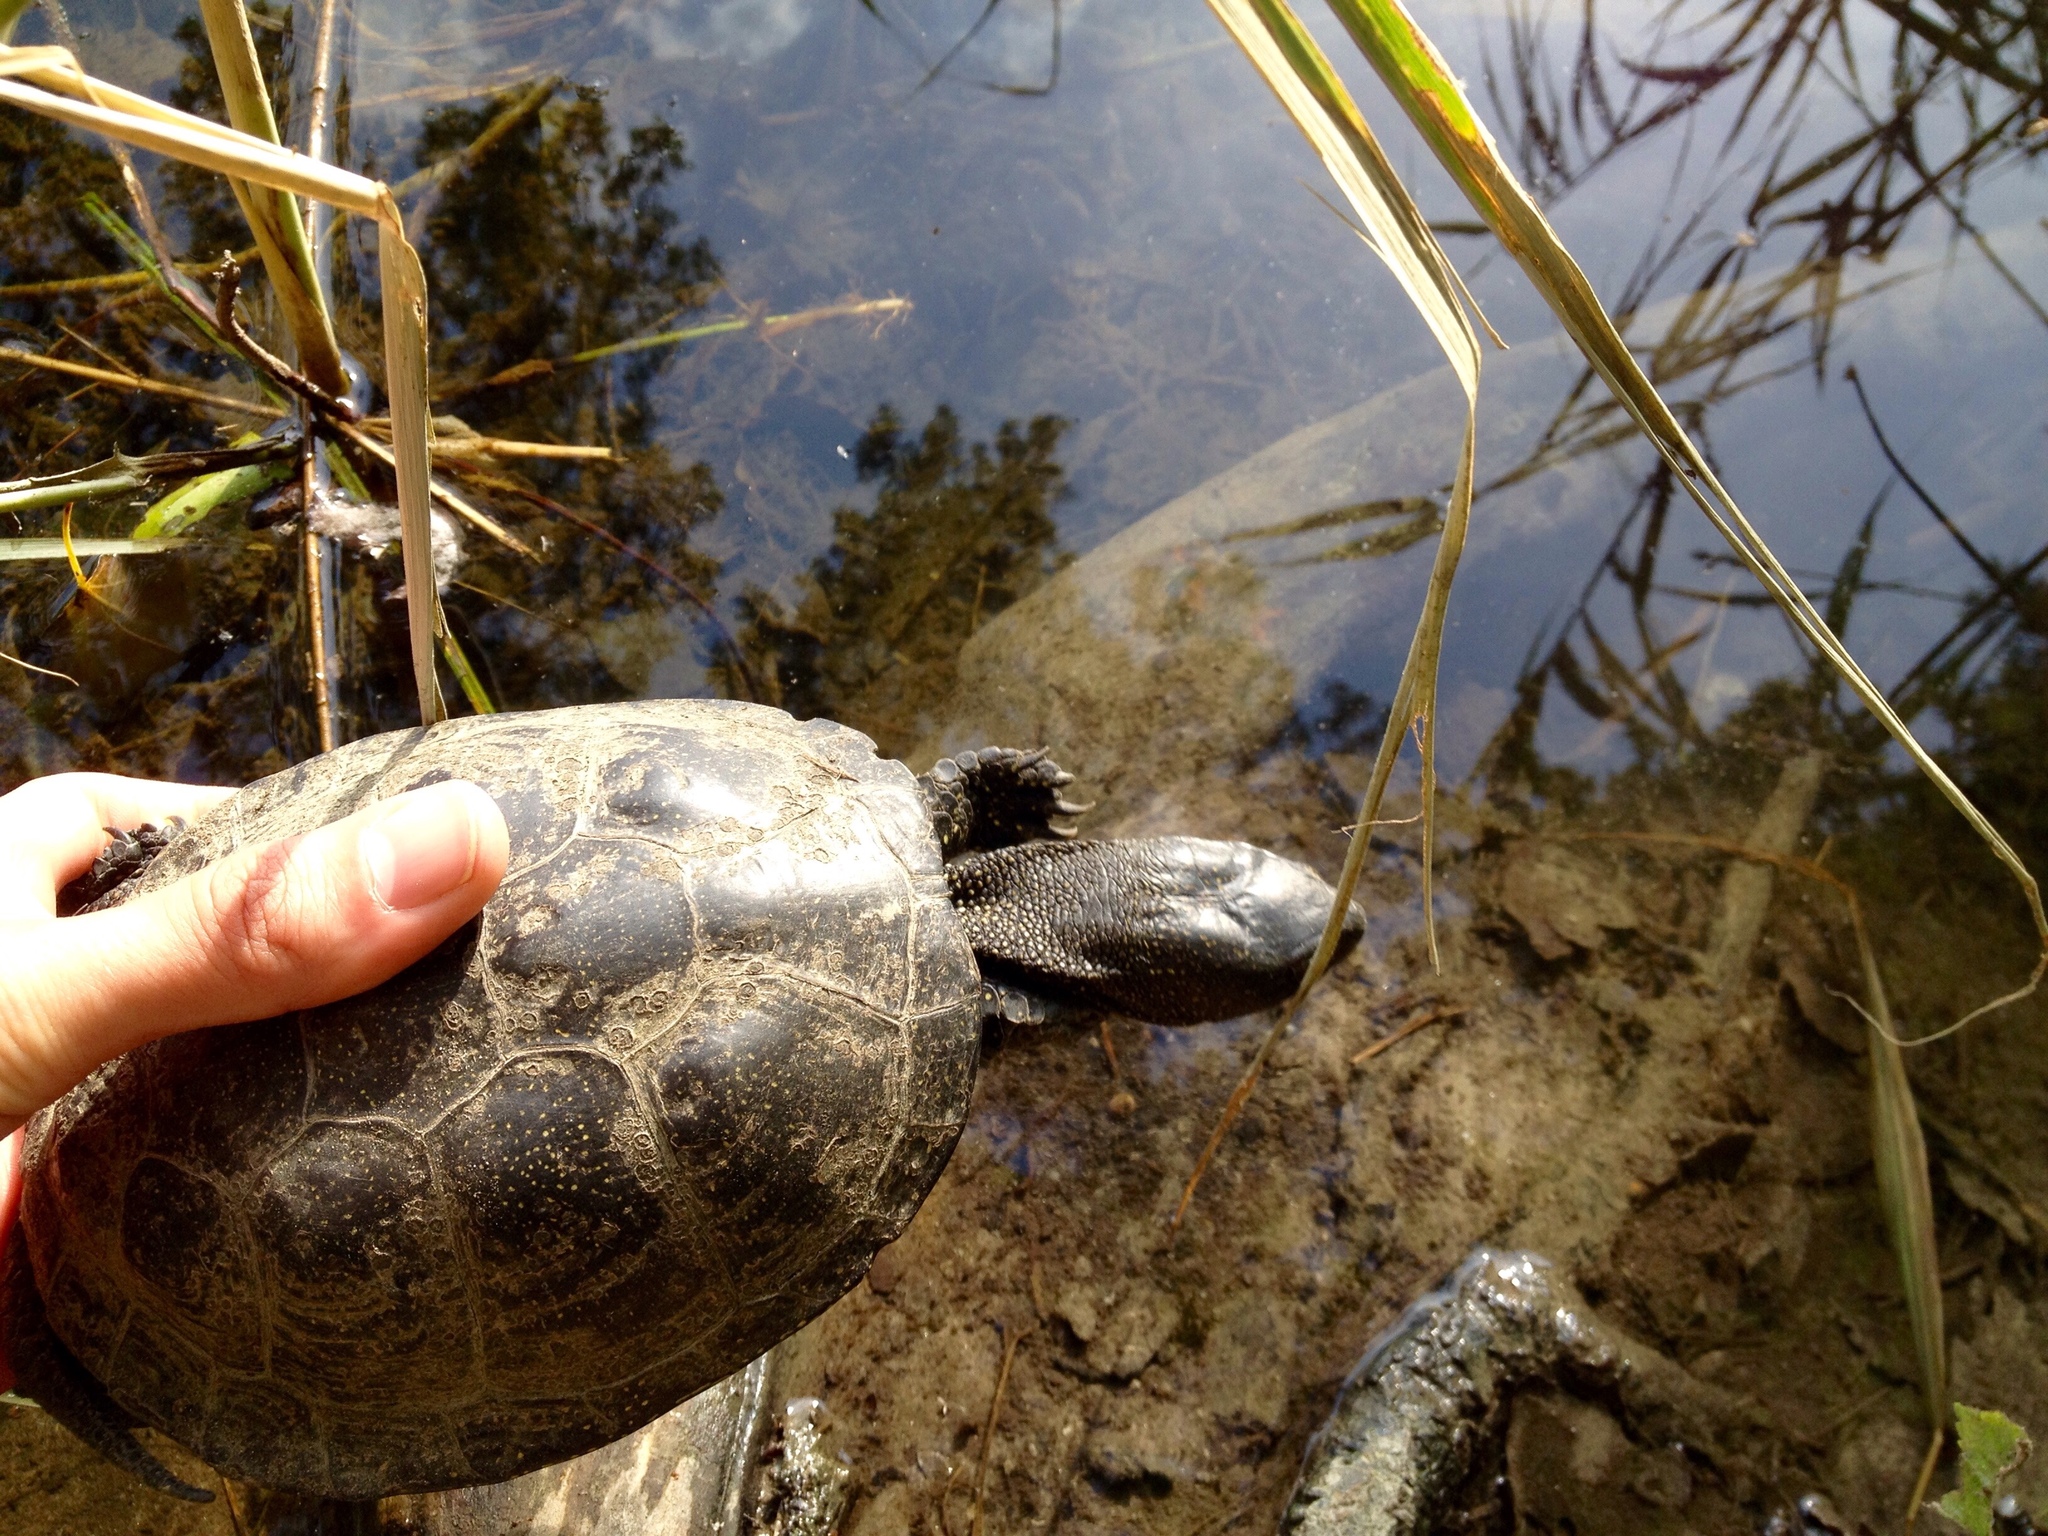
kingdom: Animalia
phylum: Chordata
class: Testudines
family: Emydidae
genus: Emys
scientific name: Emys orbicularis
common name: European pond turtle
